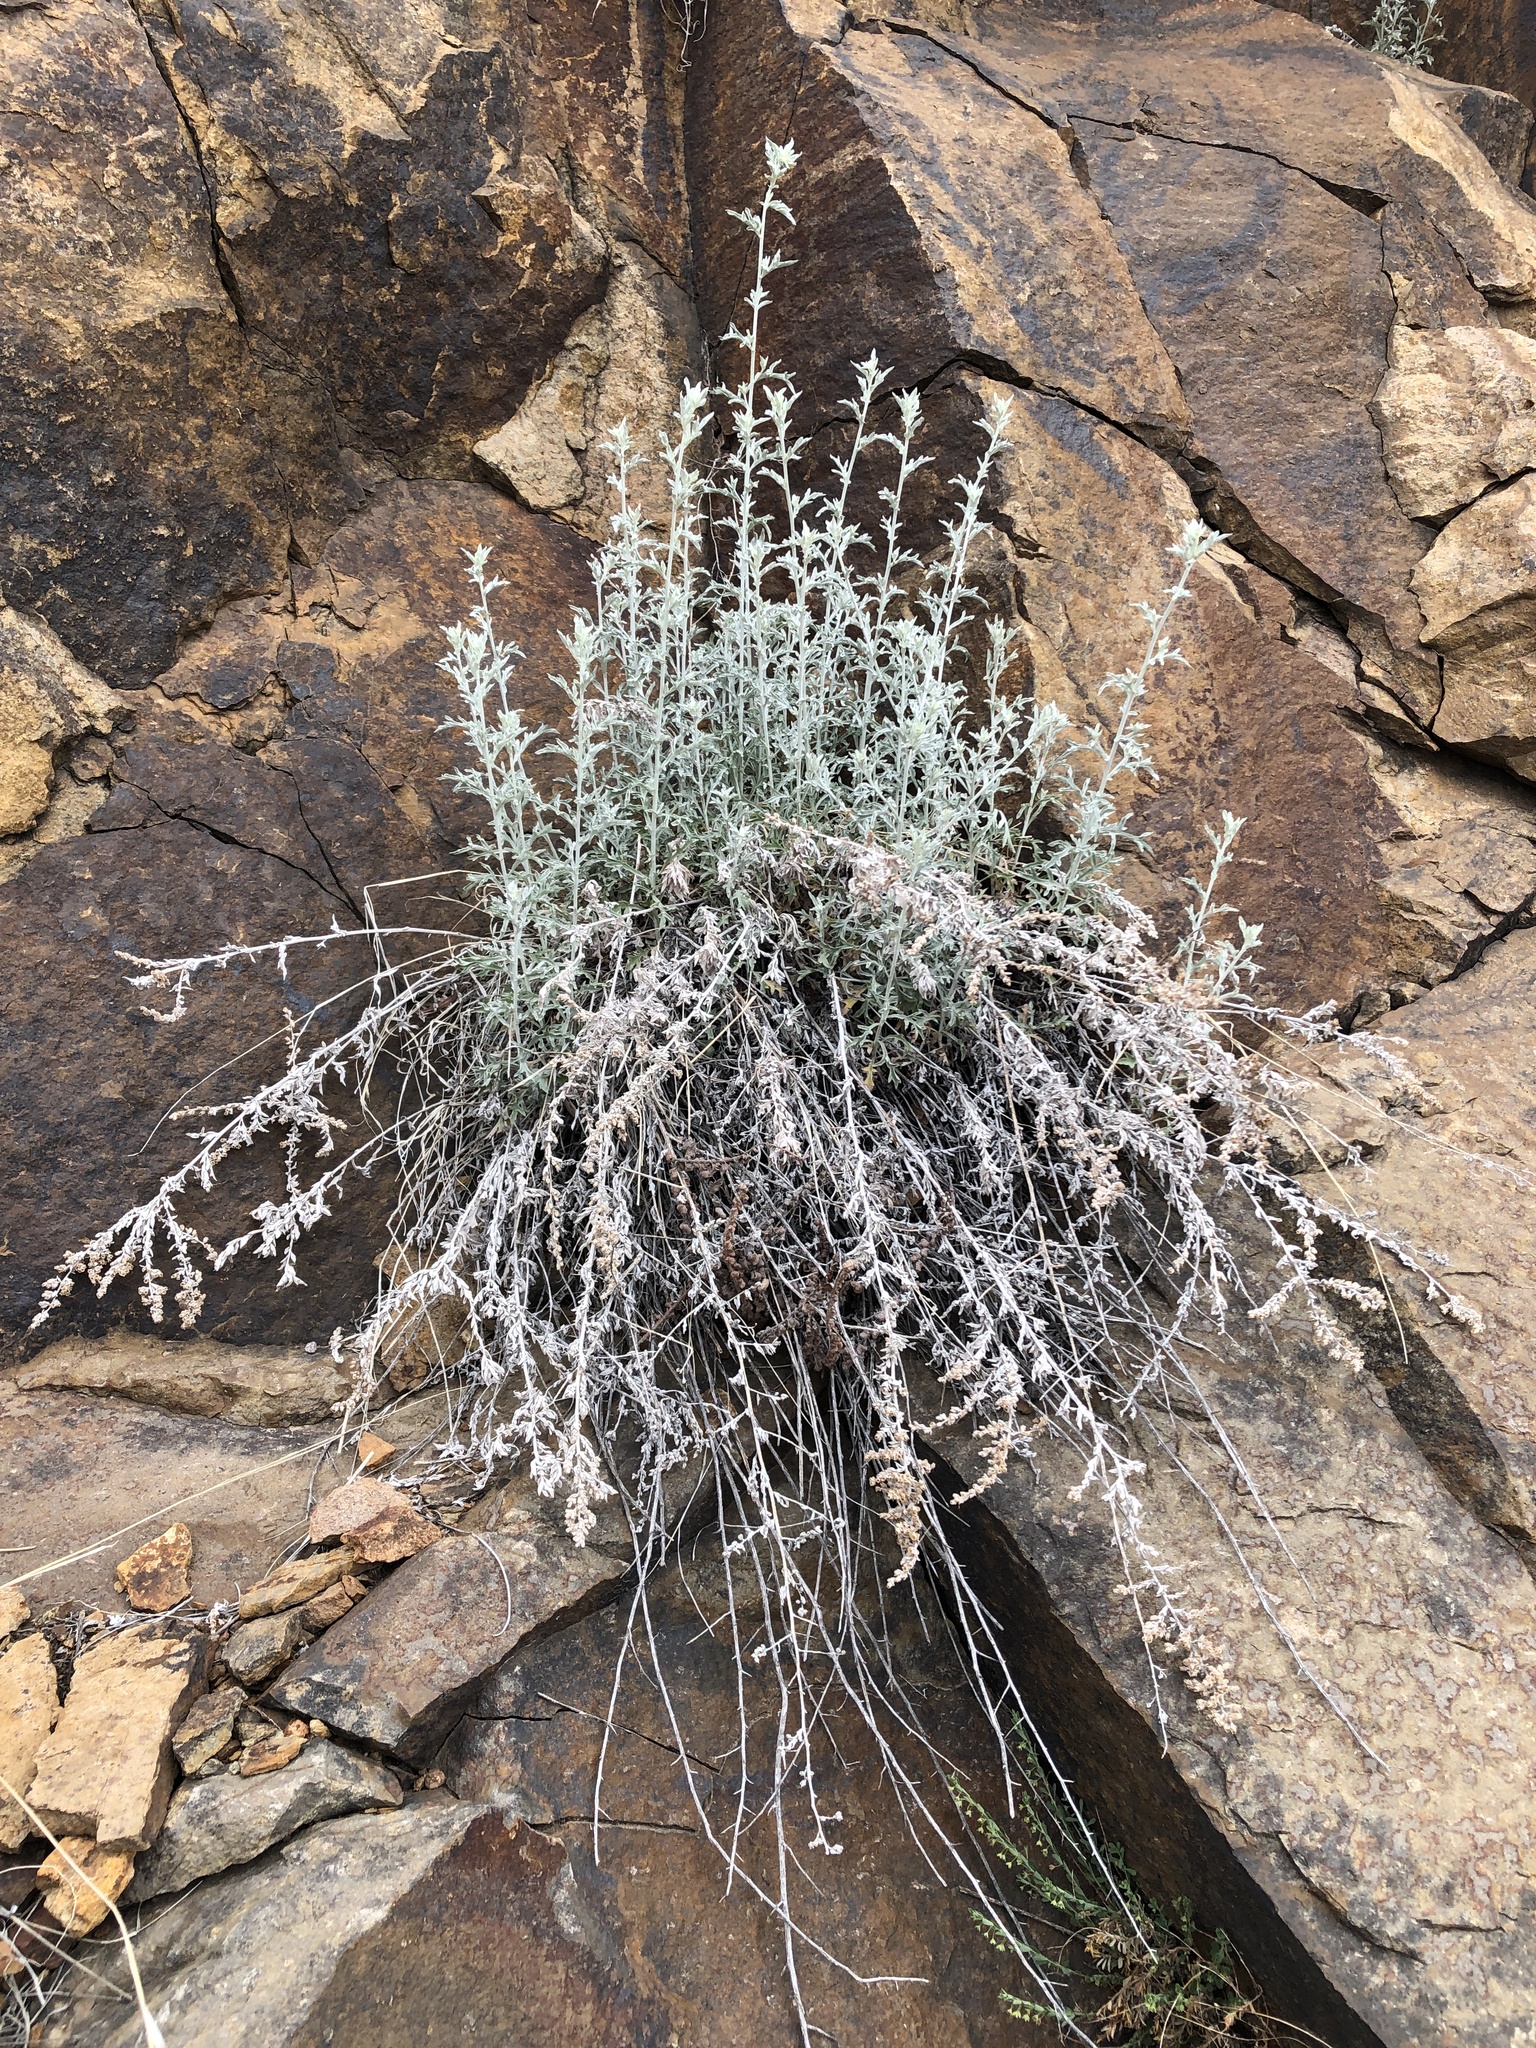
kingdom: Plantae
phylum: Tracheophyta
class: Magnoliopsida
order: Asterales
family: Asteraceae
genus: Artemisia
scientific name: Artemisia ludoviciana
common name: Western mugwort
